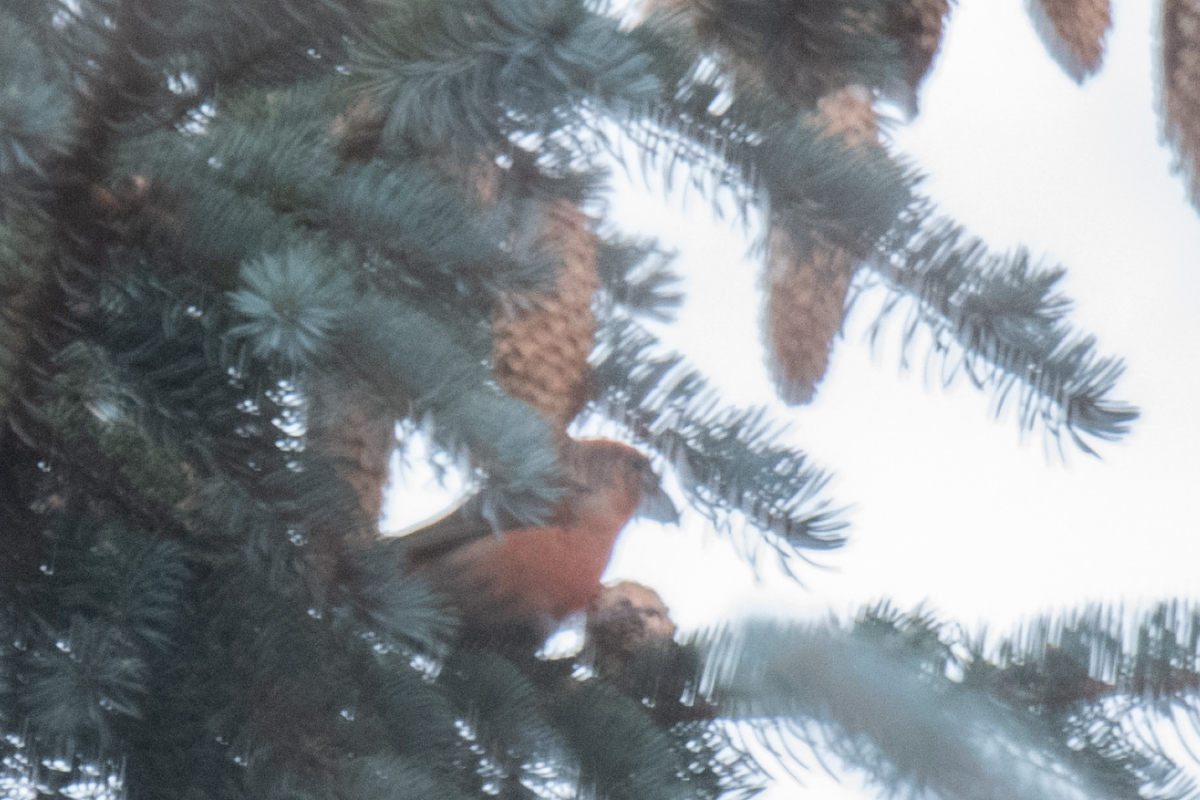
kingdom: Animalia
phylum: Chordata
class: Aves
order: Passeriformes
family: Fringillidae
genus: Loxia
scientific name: Loxia curvirostra
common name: Red crossbill
